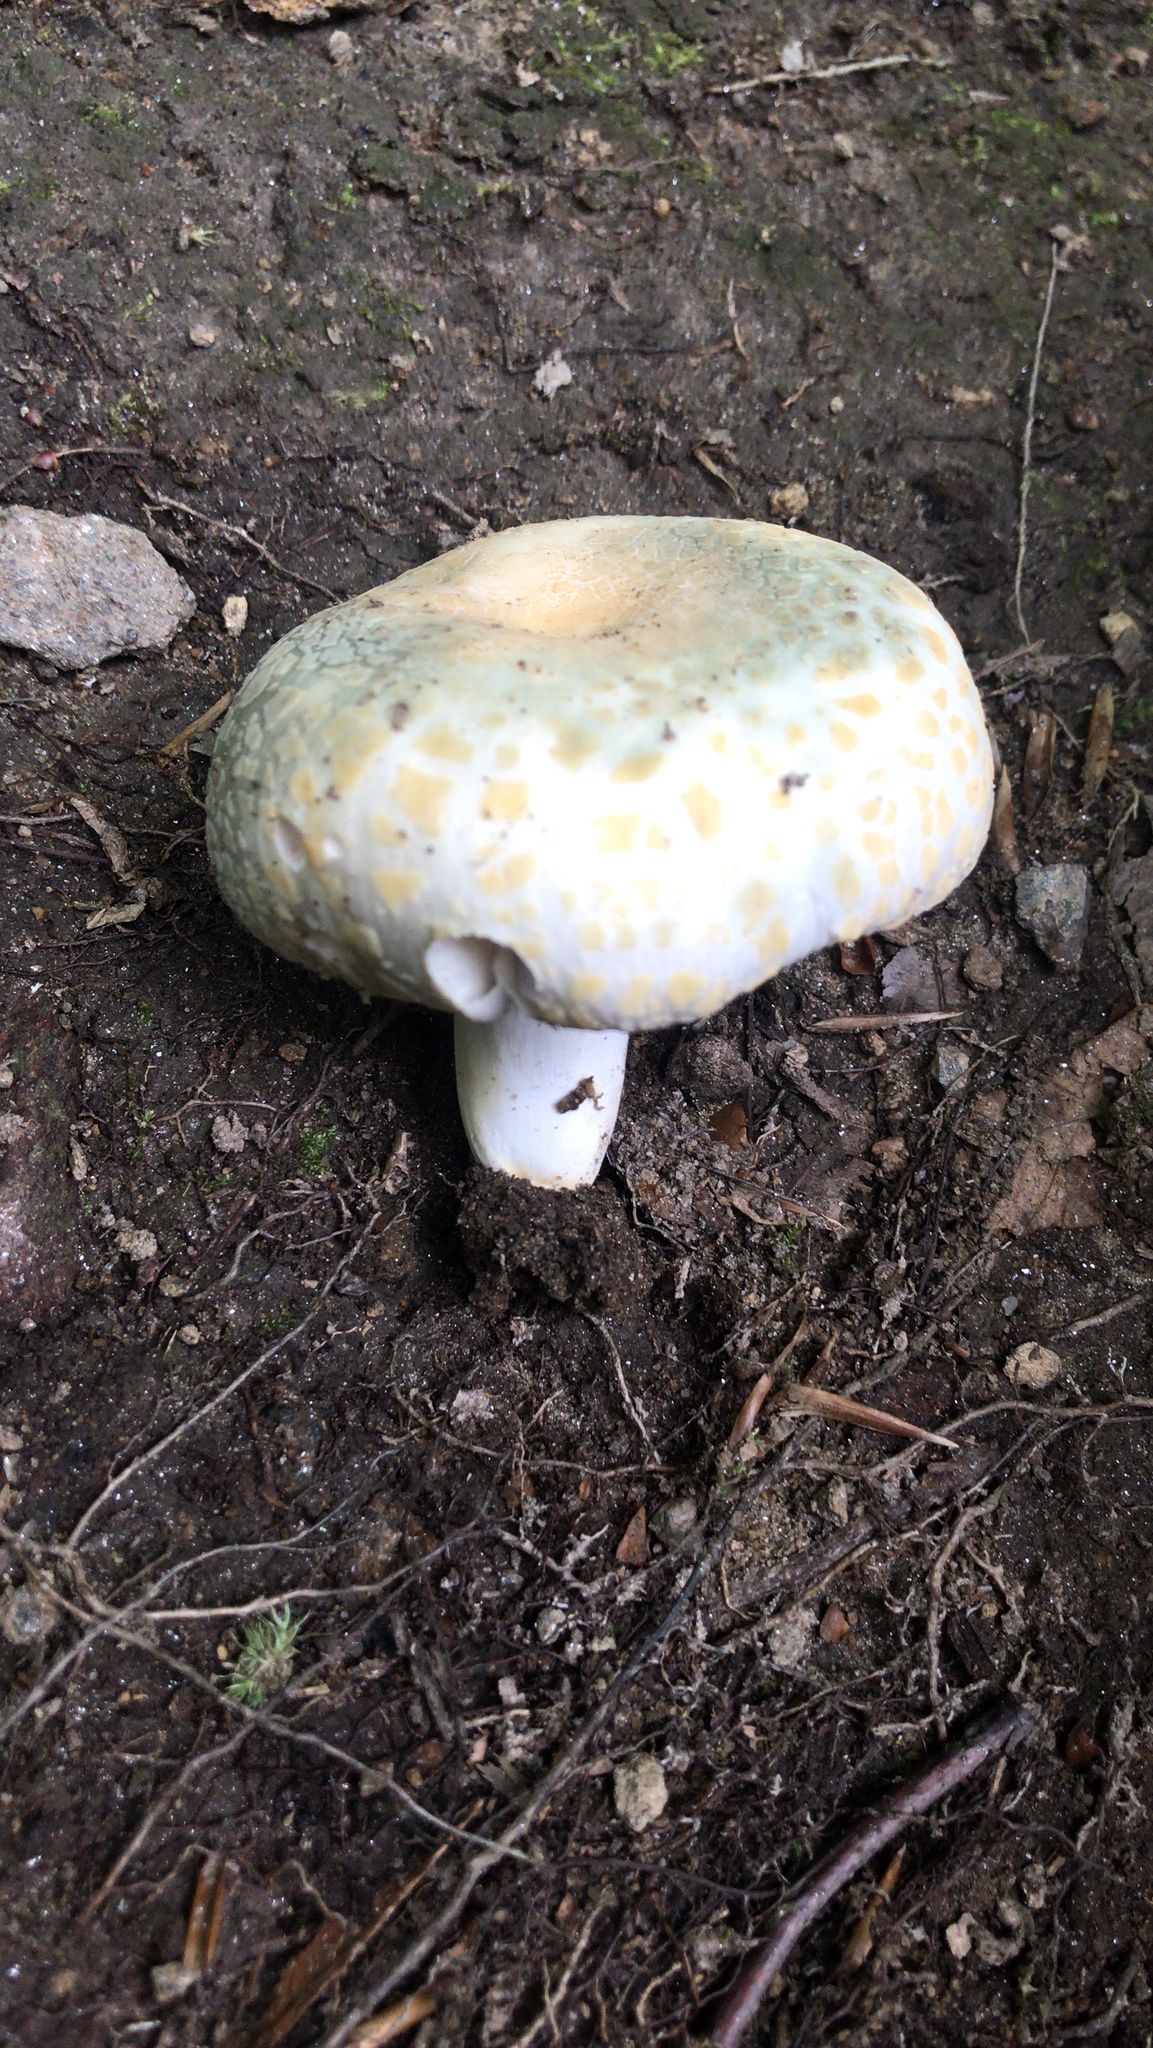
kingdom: Fungi
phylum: Basidiomycota
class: Agaricomycetes
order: Russulales
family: Russulaceae
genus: Russula
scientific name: Russula parvovirescens
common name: Blue-green cracking russula
